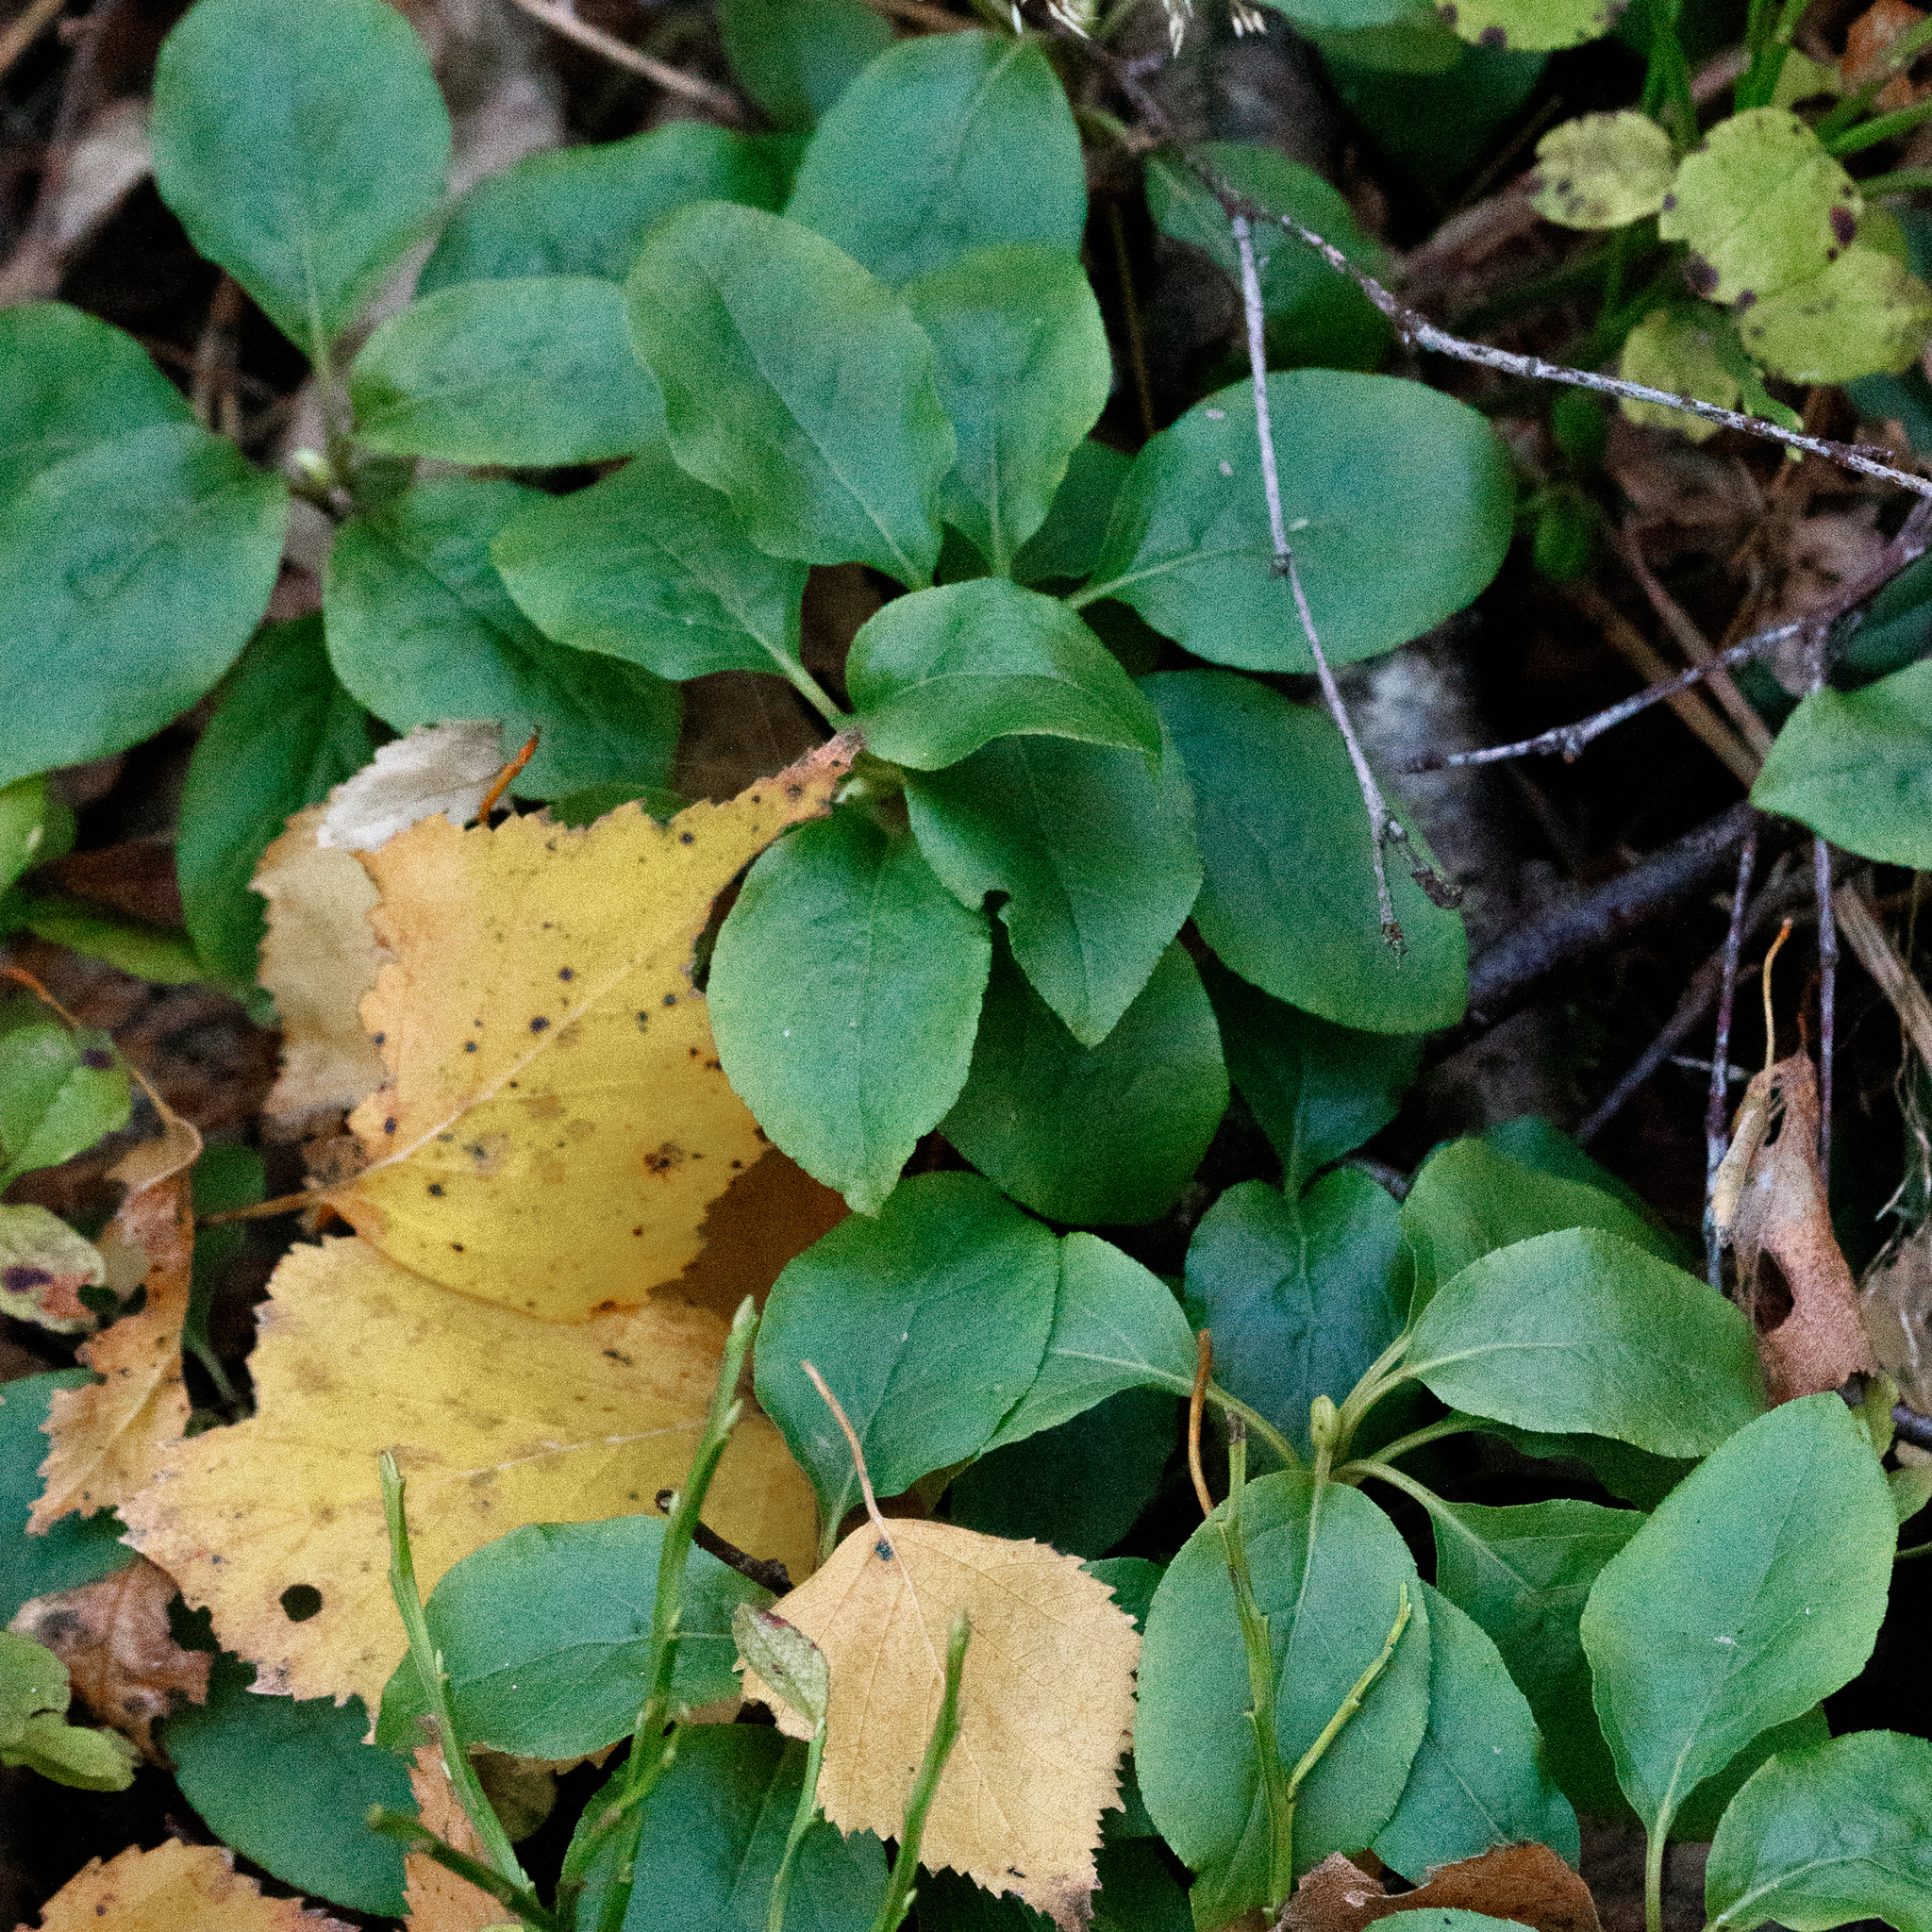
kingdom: Plantae
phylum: Tracheophyta
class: Magnoliopsida
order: Ericales
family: Ericaceae
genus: Orthilia
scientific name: Orthilia secunda
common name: One-sided orthilia
